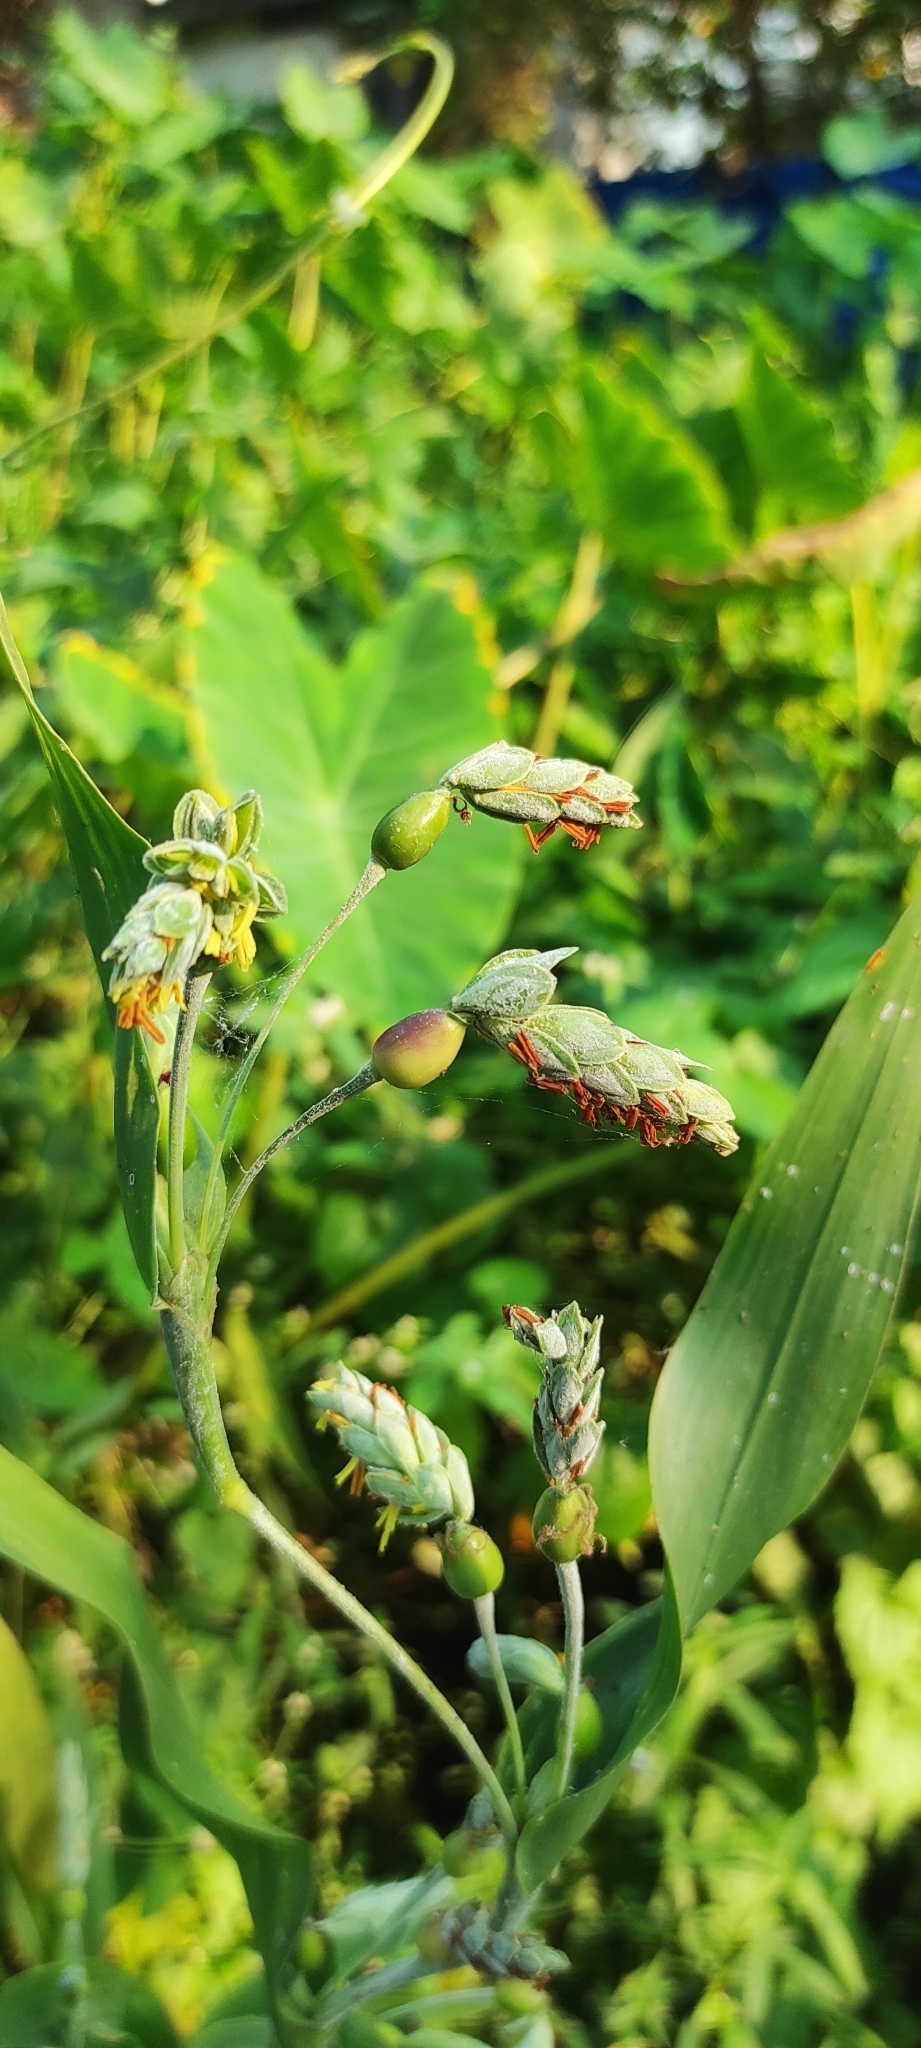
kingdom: Plantae
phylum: Tracheophyta
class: Liliopsida
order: Poales
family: Poaceae
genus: Coix
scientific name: Coix lacryma-jobi
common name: Job's tears
